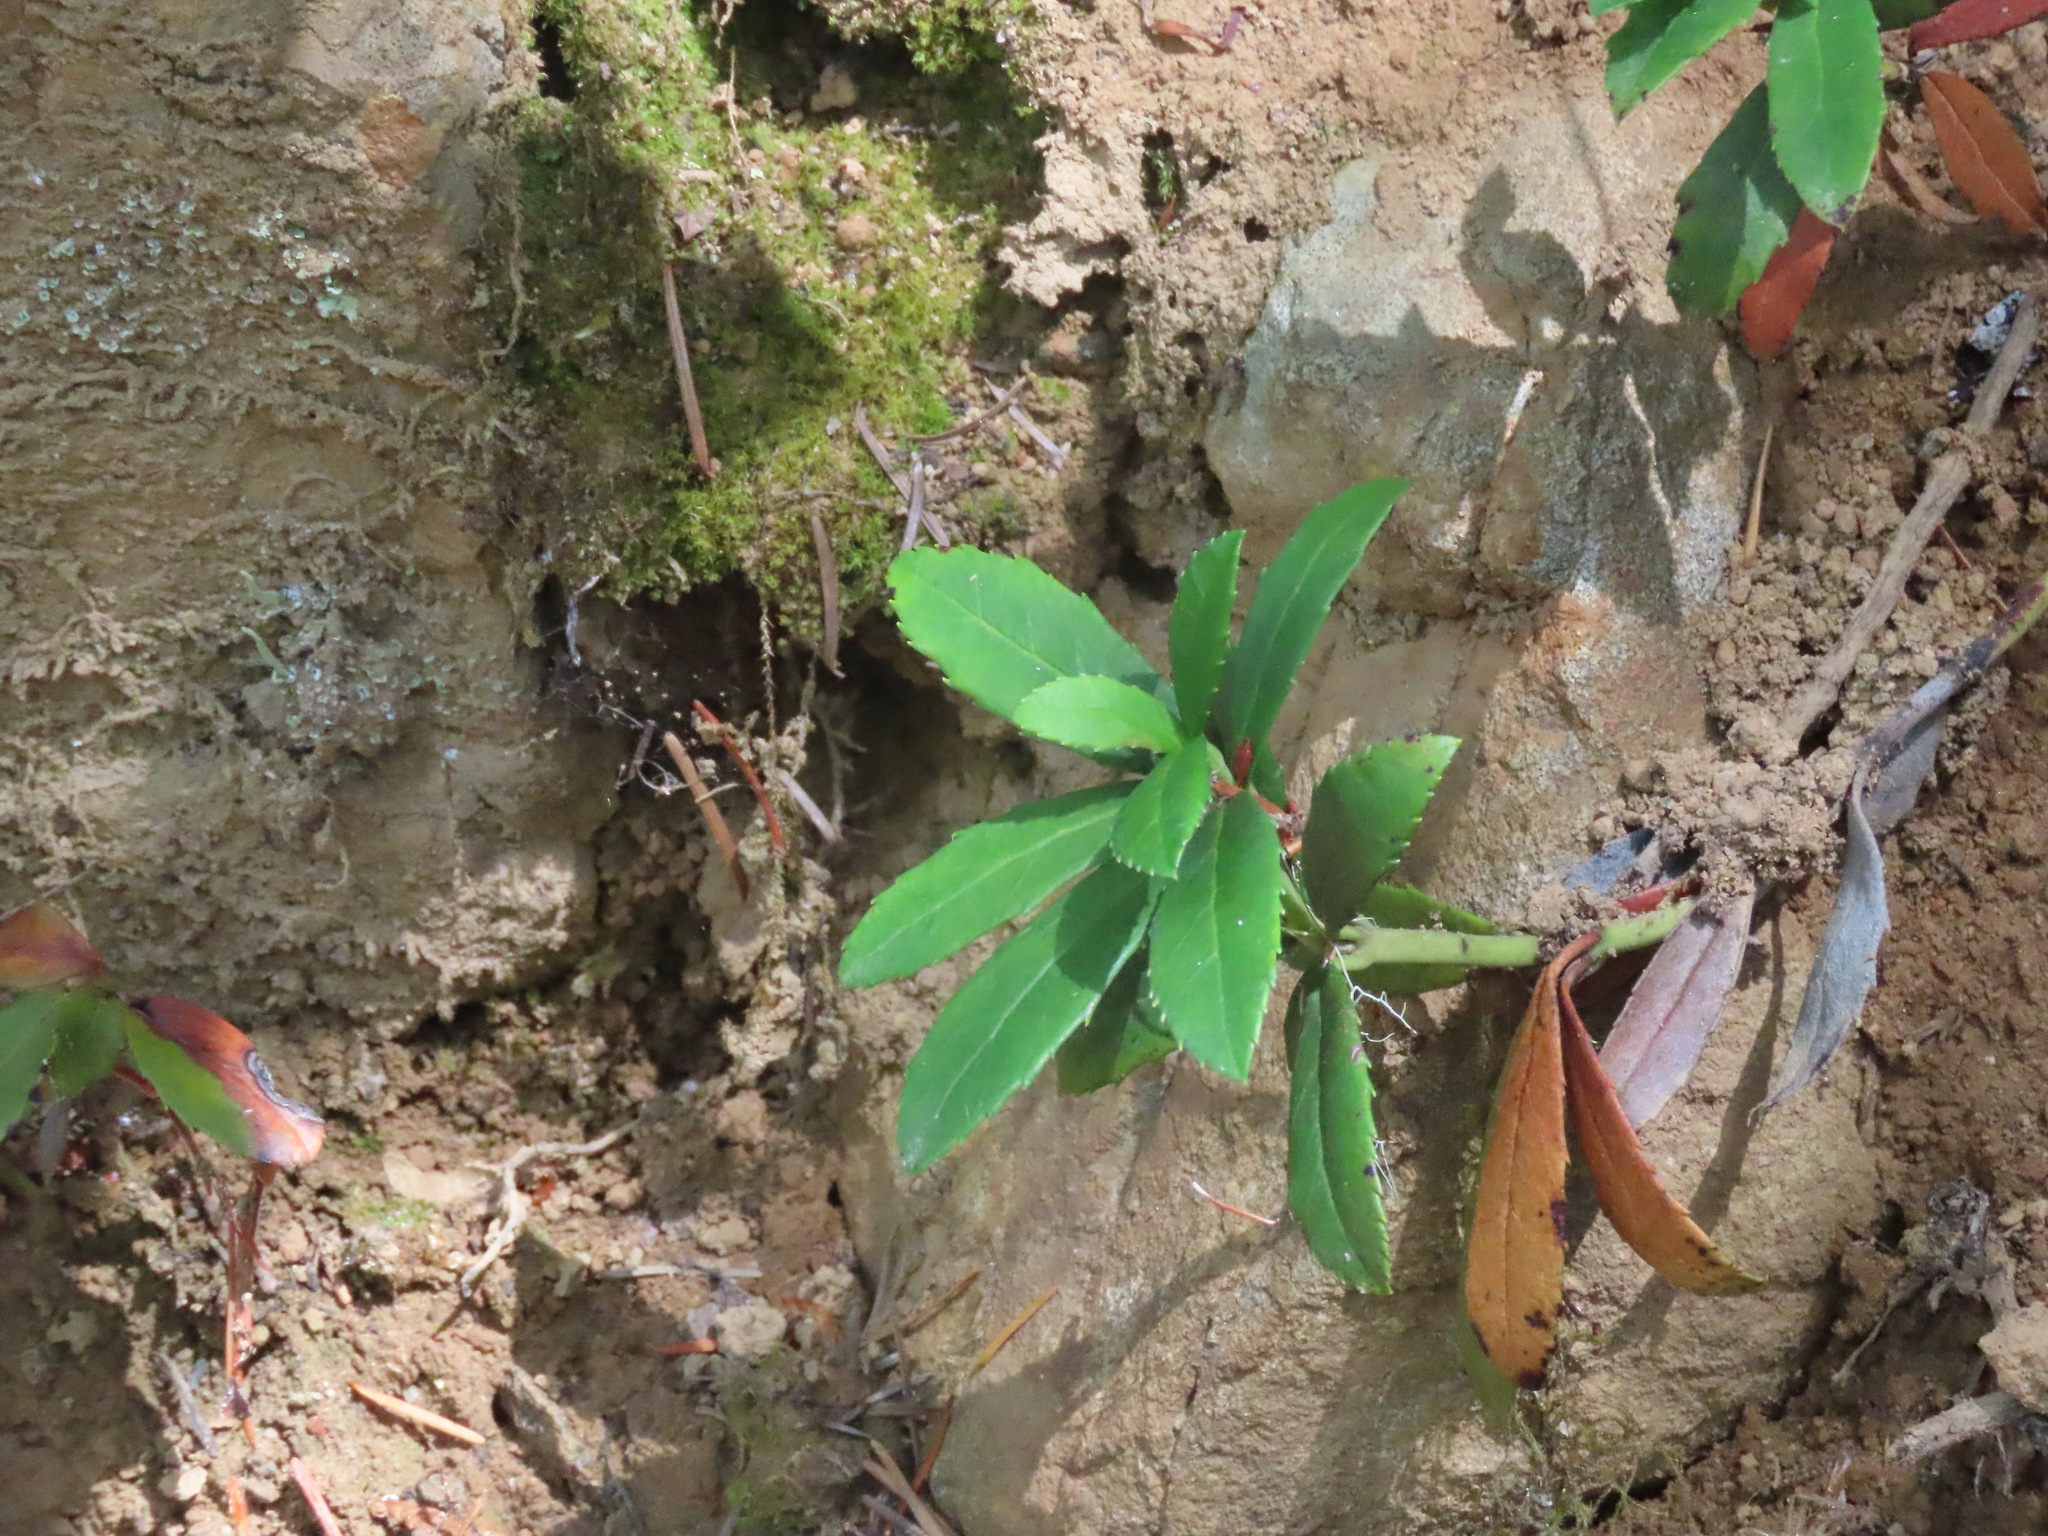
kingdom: Plantae
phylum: Tracheophyta
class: Magnoliopsida
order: Ericales
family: Ericaceae
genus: Chimaphila
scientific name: Chimaphila umbellata
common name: Pipsissewa
